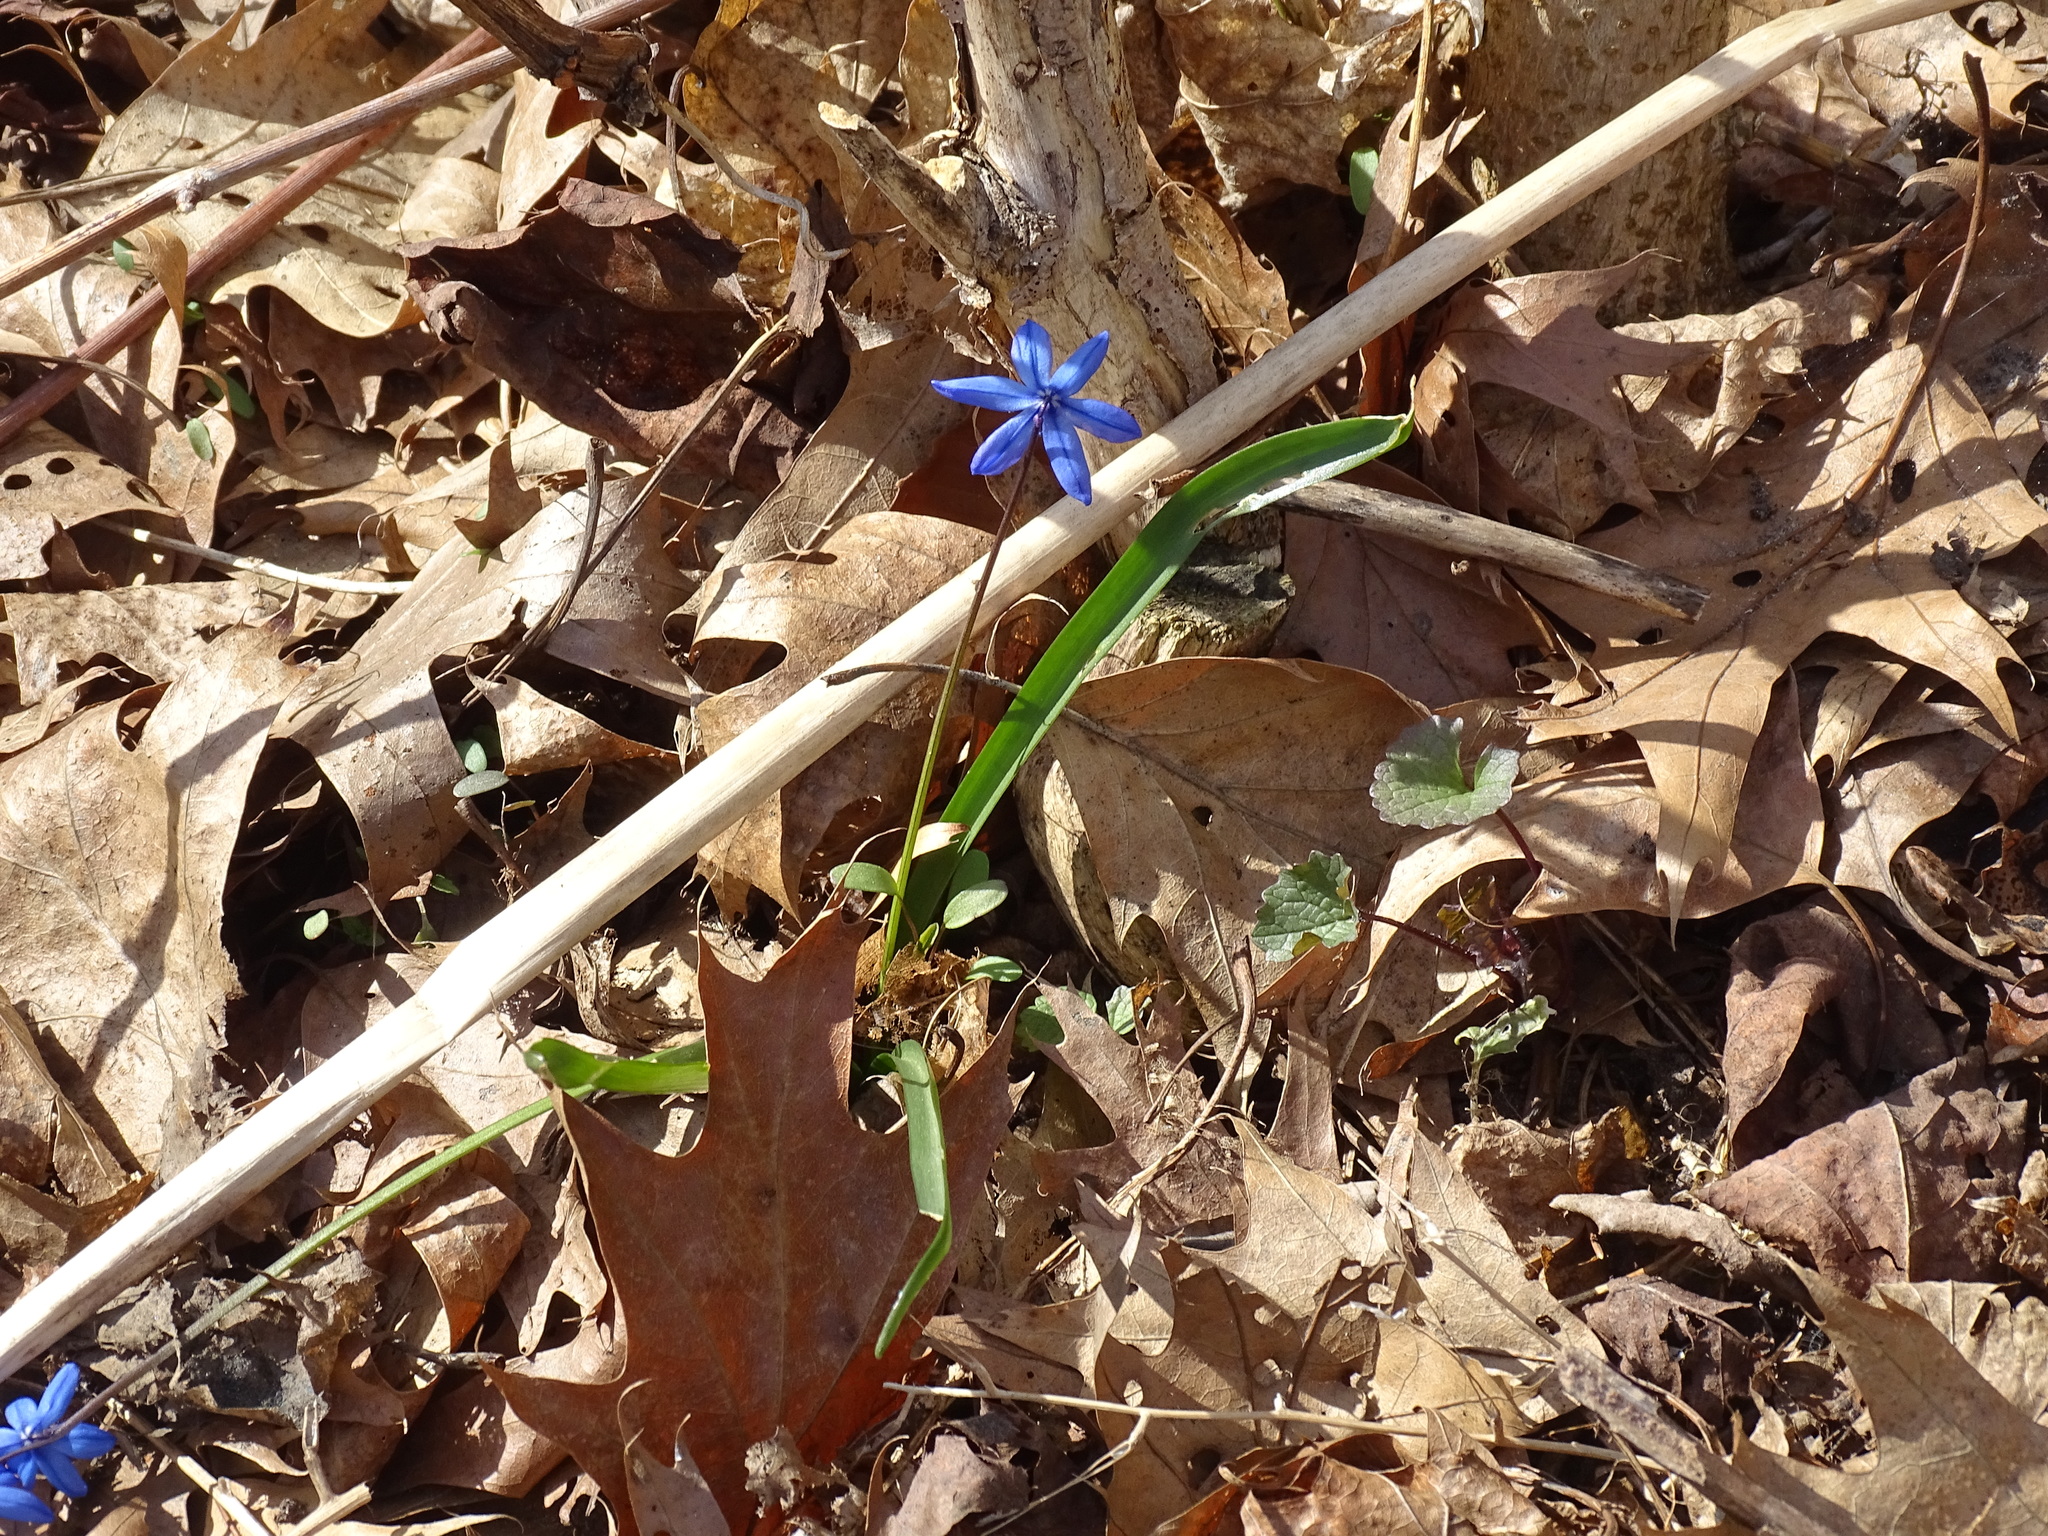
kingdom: Plantae
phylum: Tracheophyta
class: Liliopsida
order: Asparagales
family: Asparagaceae
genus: Scilla
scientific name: Scilla siberica
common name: Siberian squill
